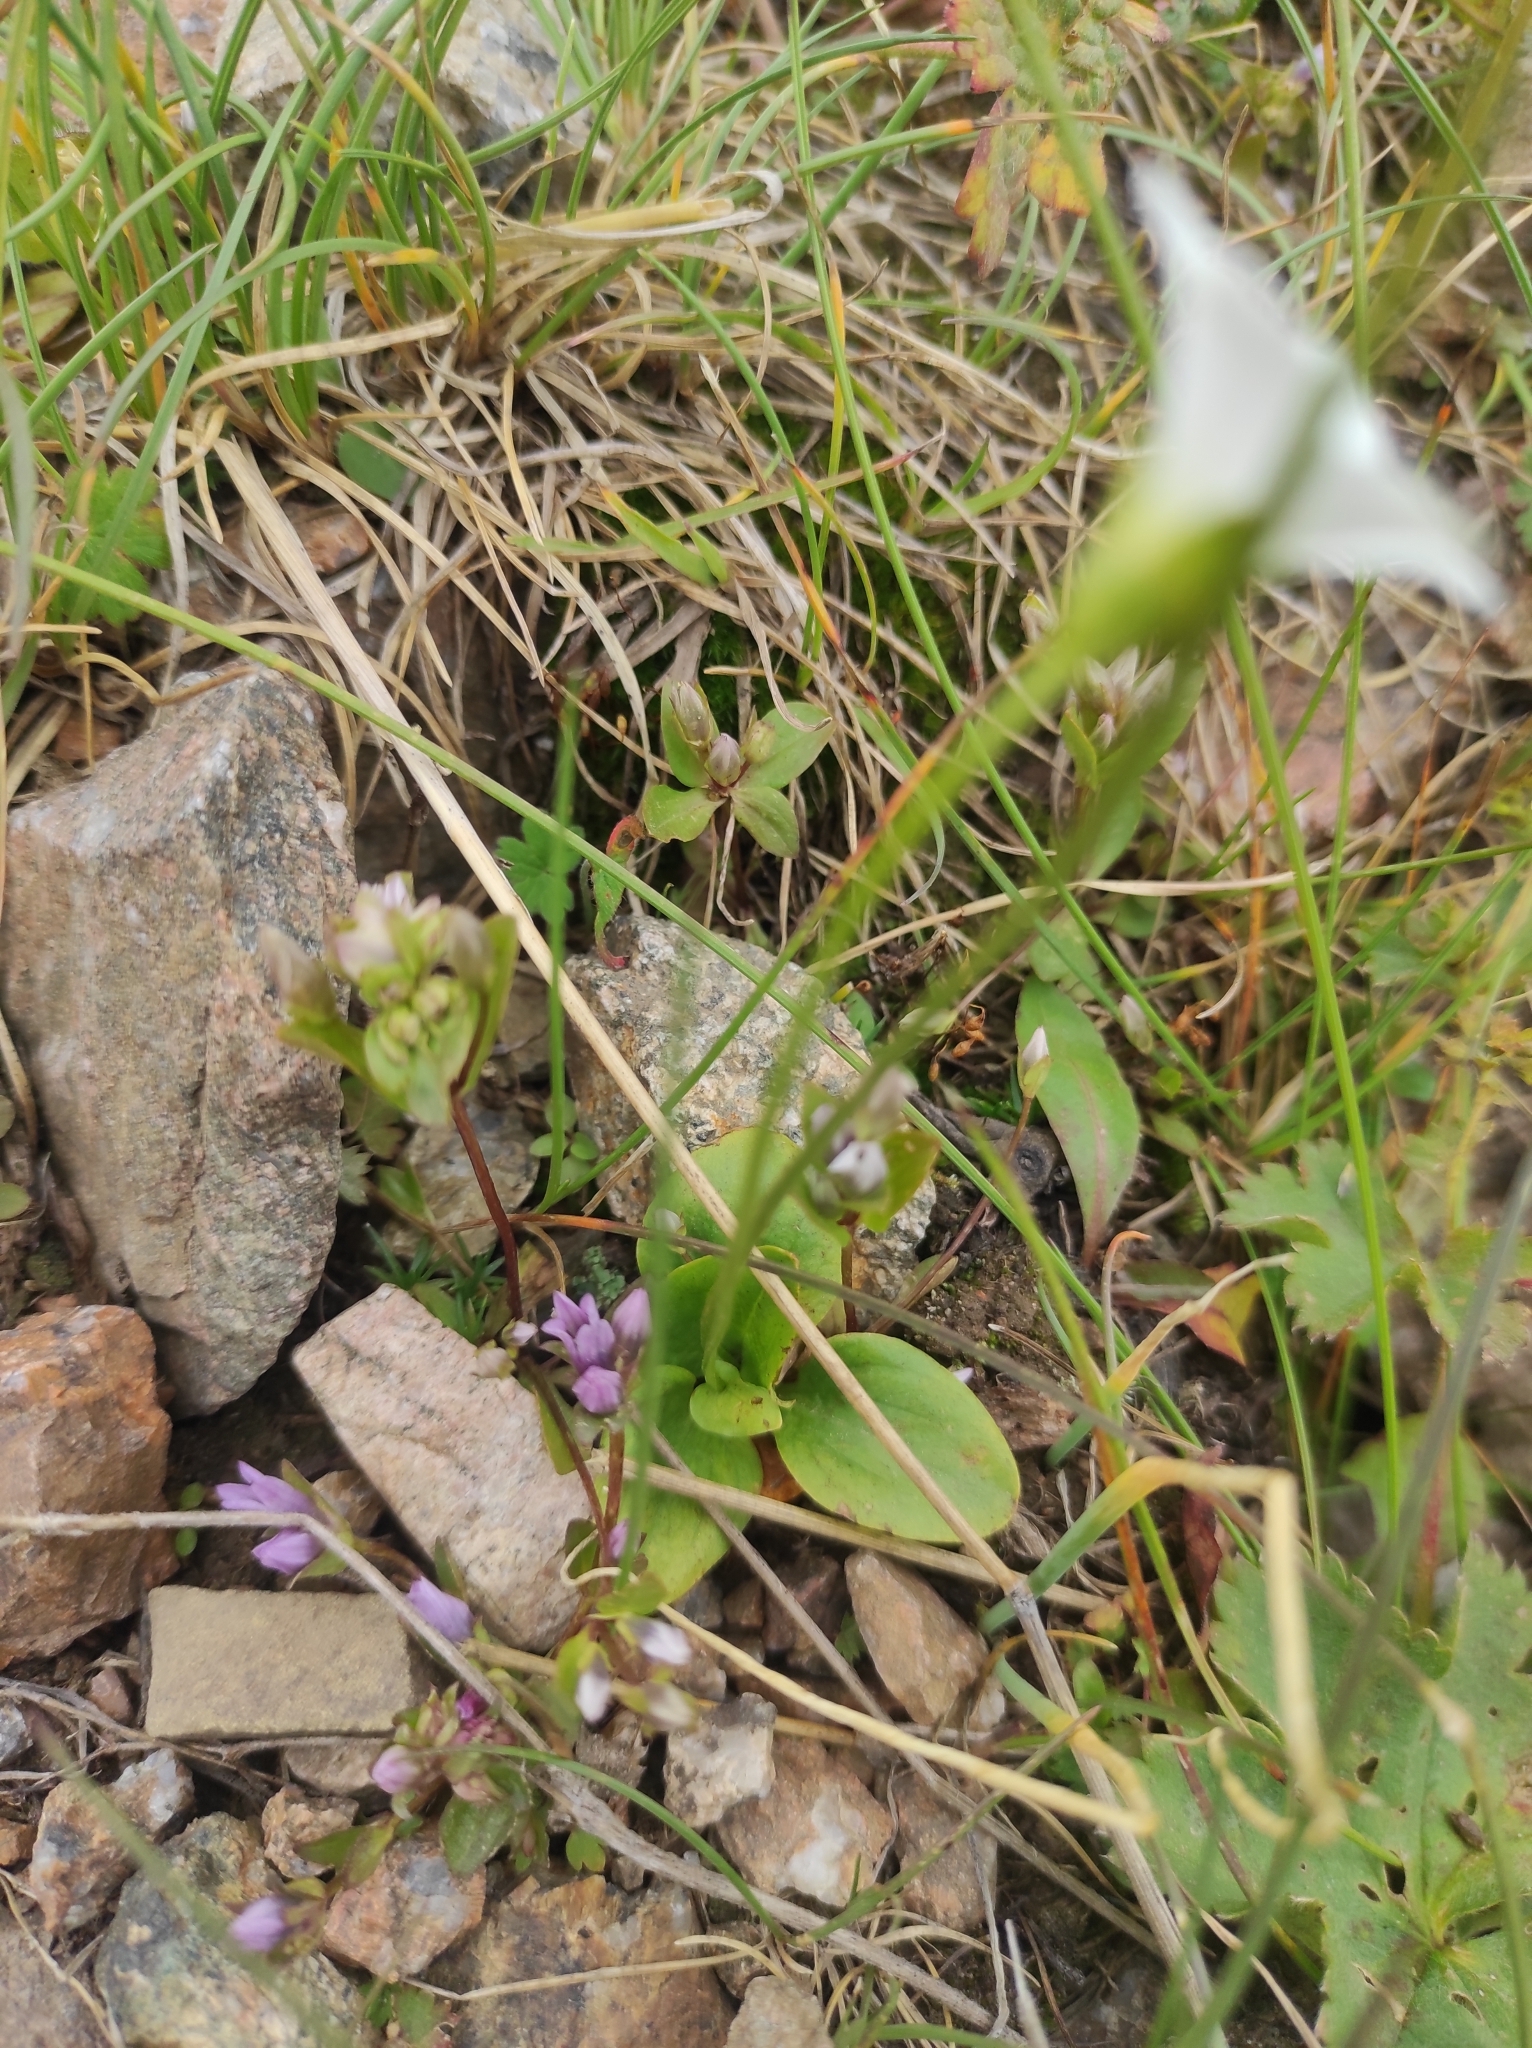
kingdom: Plantae
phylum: Tracheophyta
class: Magnoliopsida
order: Celastrales
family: Parnassiaceae
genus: Parnassia
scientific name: Parnassia laxmannii
